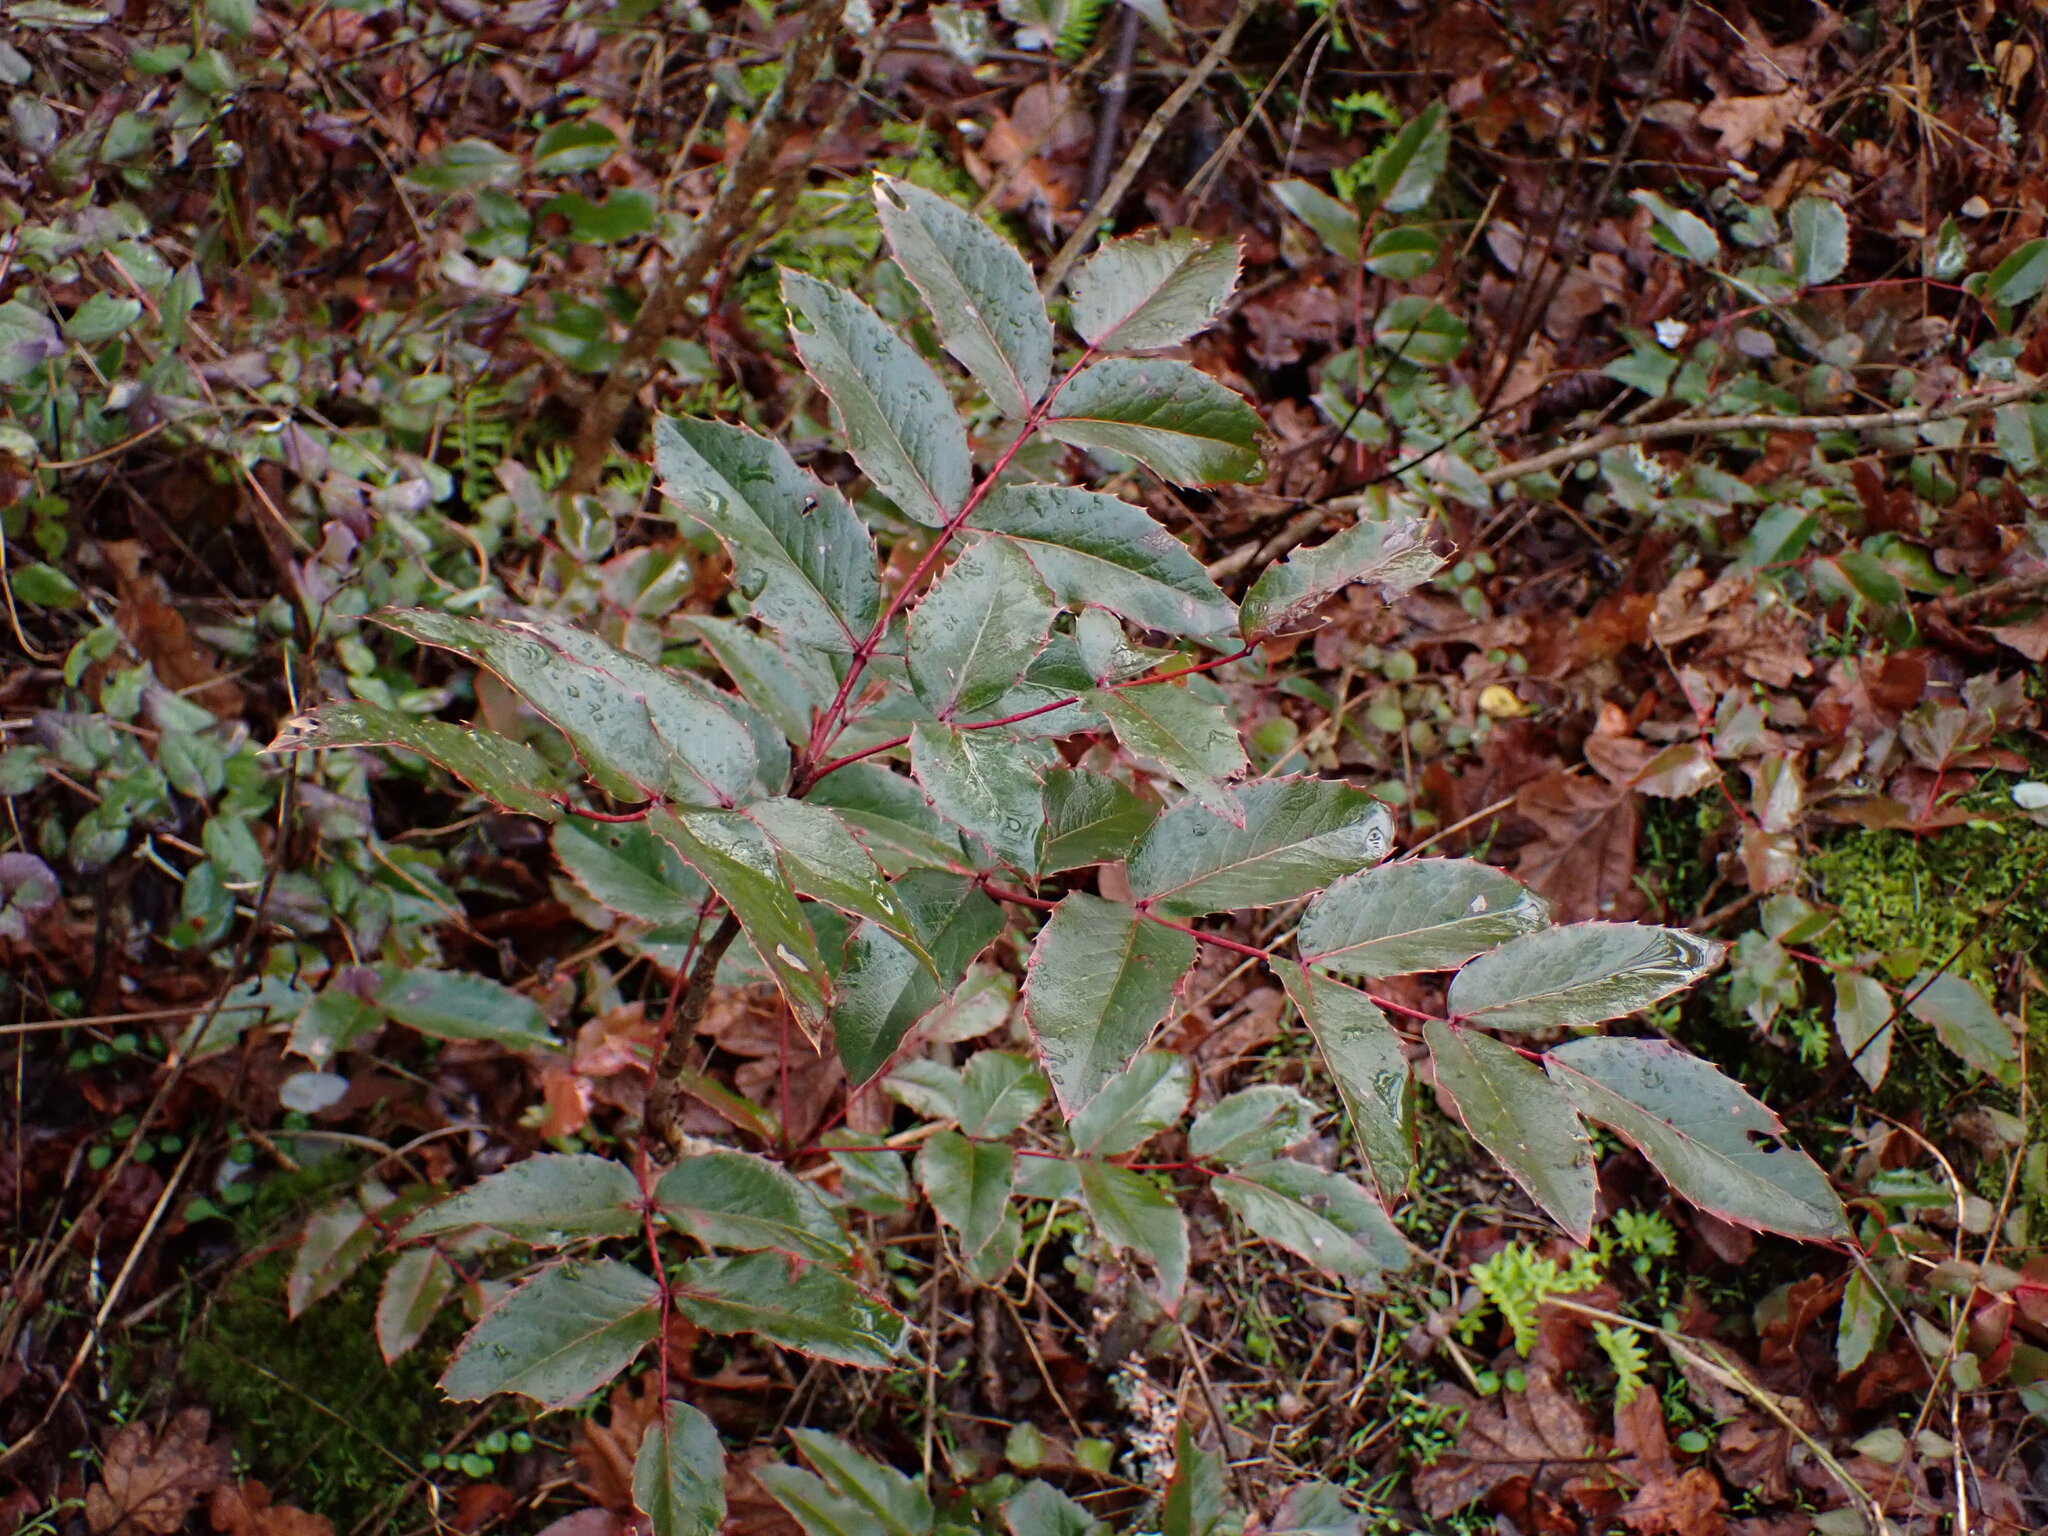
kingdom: Plantae
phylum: Tracheophyta
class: Magnoliopsida
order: Ranunculales
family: Berberidaceae
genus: Mahonia
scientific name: Mahonia aquifolium
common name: Oregon-grape
